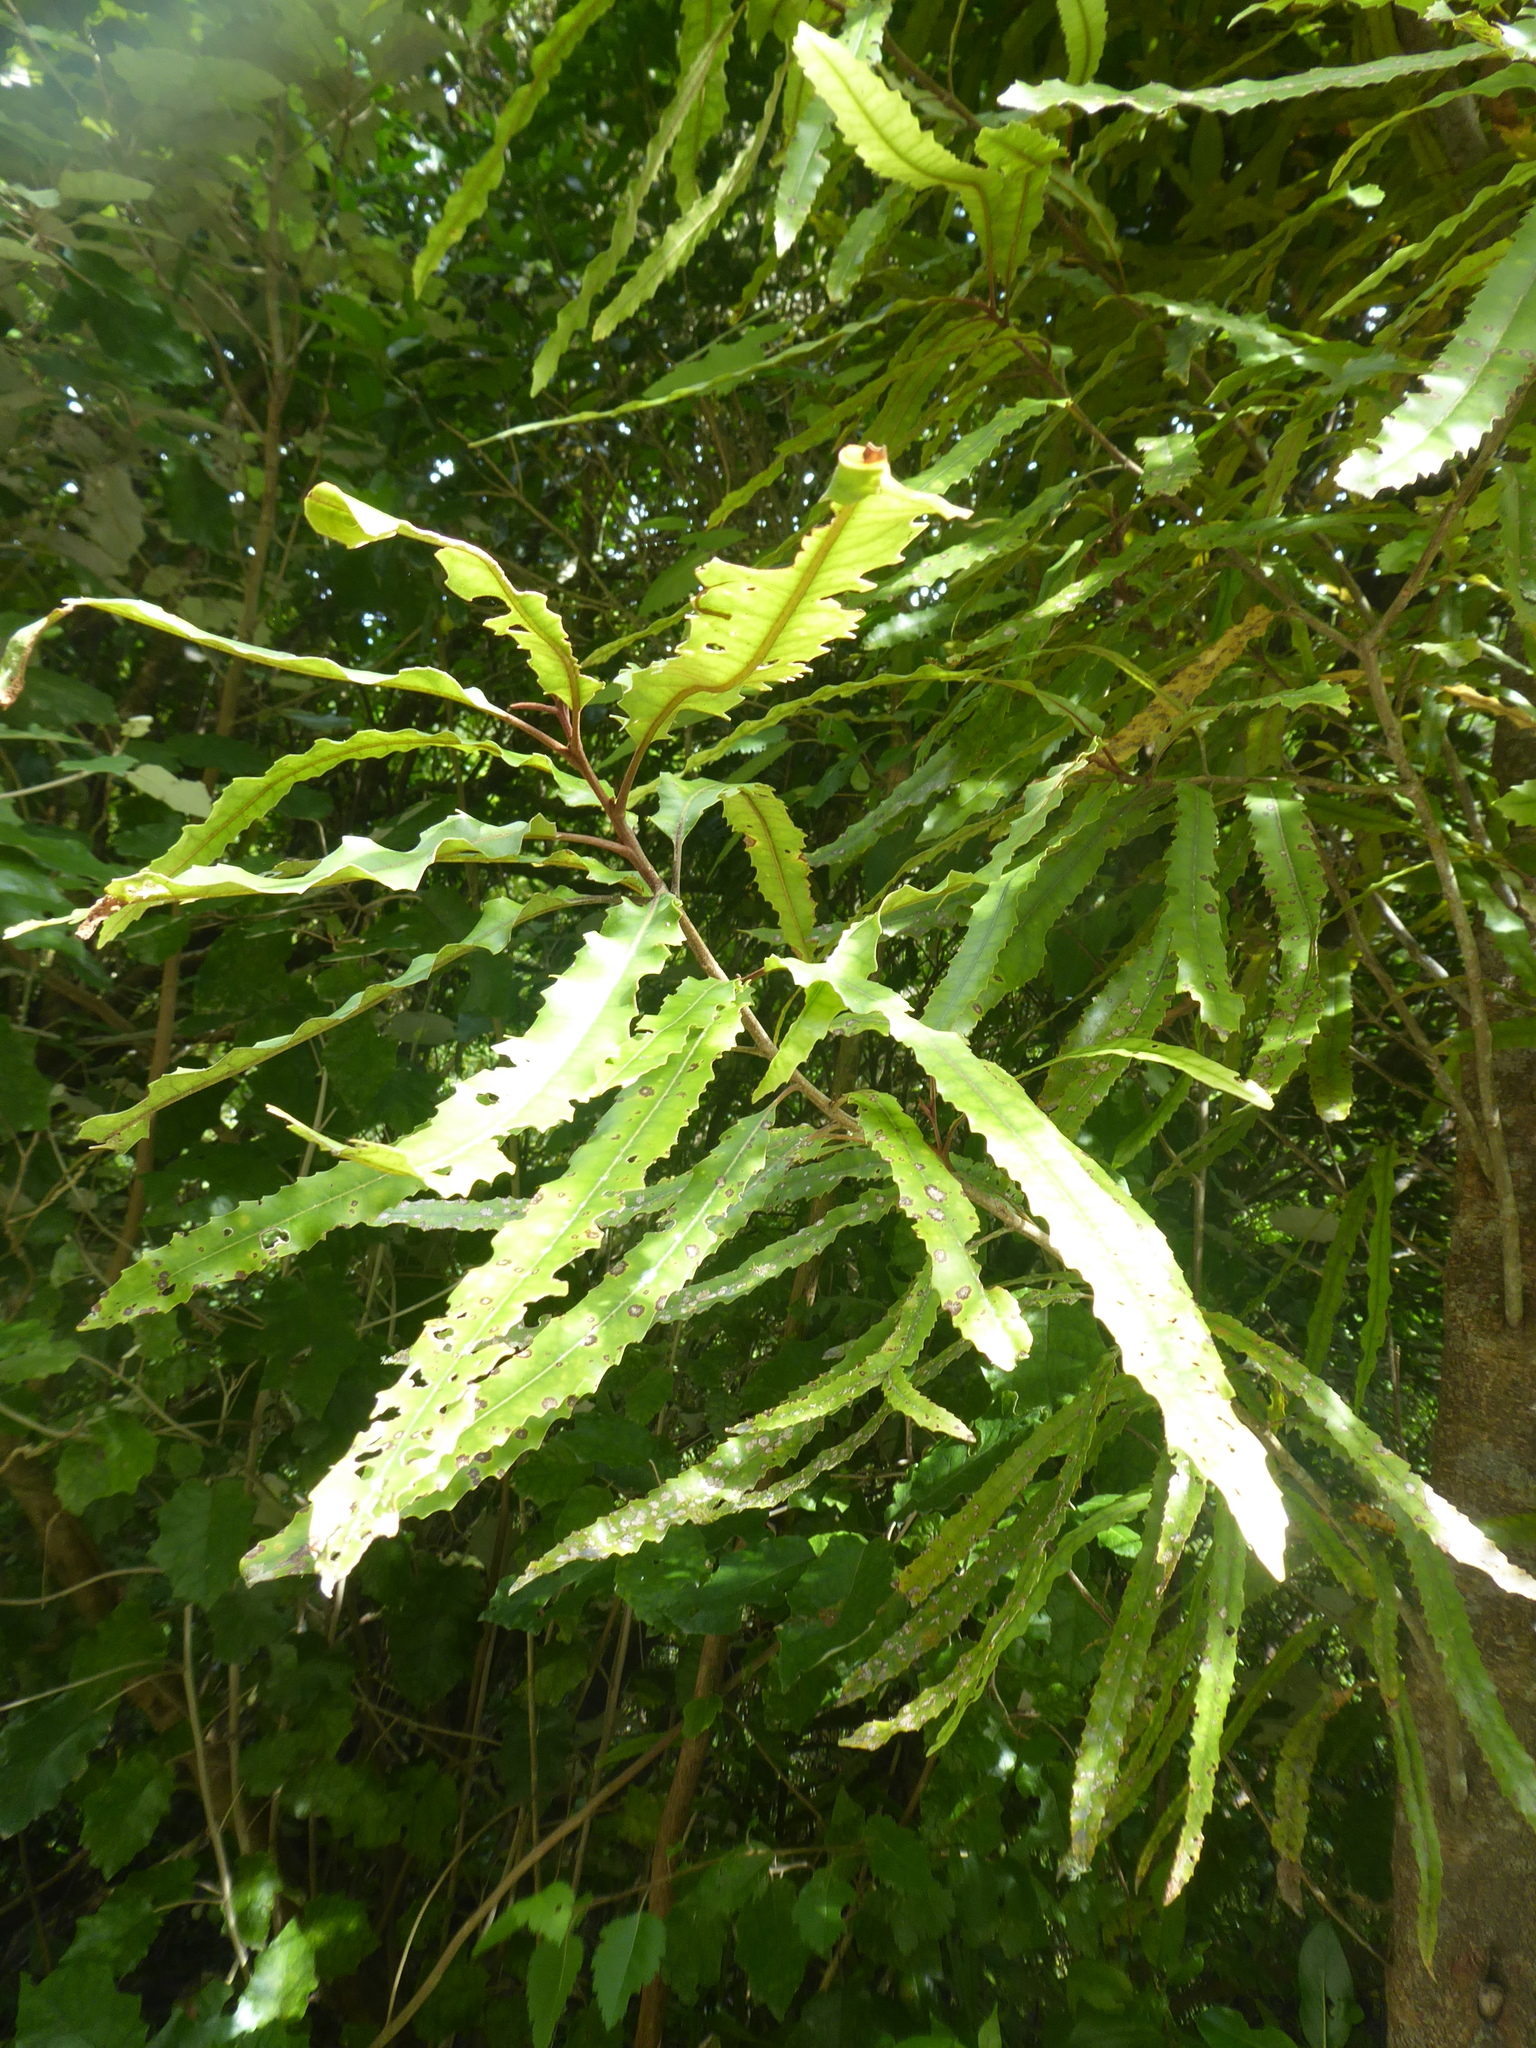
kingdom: Plantae
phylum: Tracheophyta
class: Magnoliopsida
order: Proteales
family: Proteaceae
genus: Knightia
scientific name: Knightia excelsa
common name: New zealand-honeysuckle
